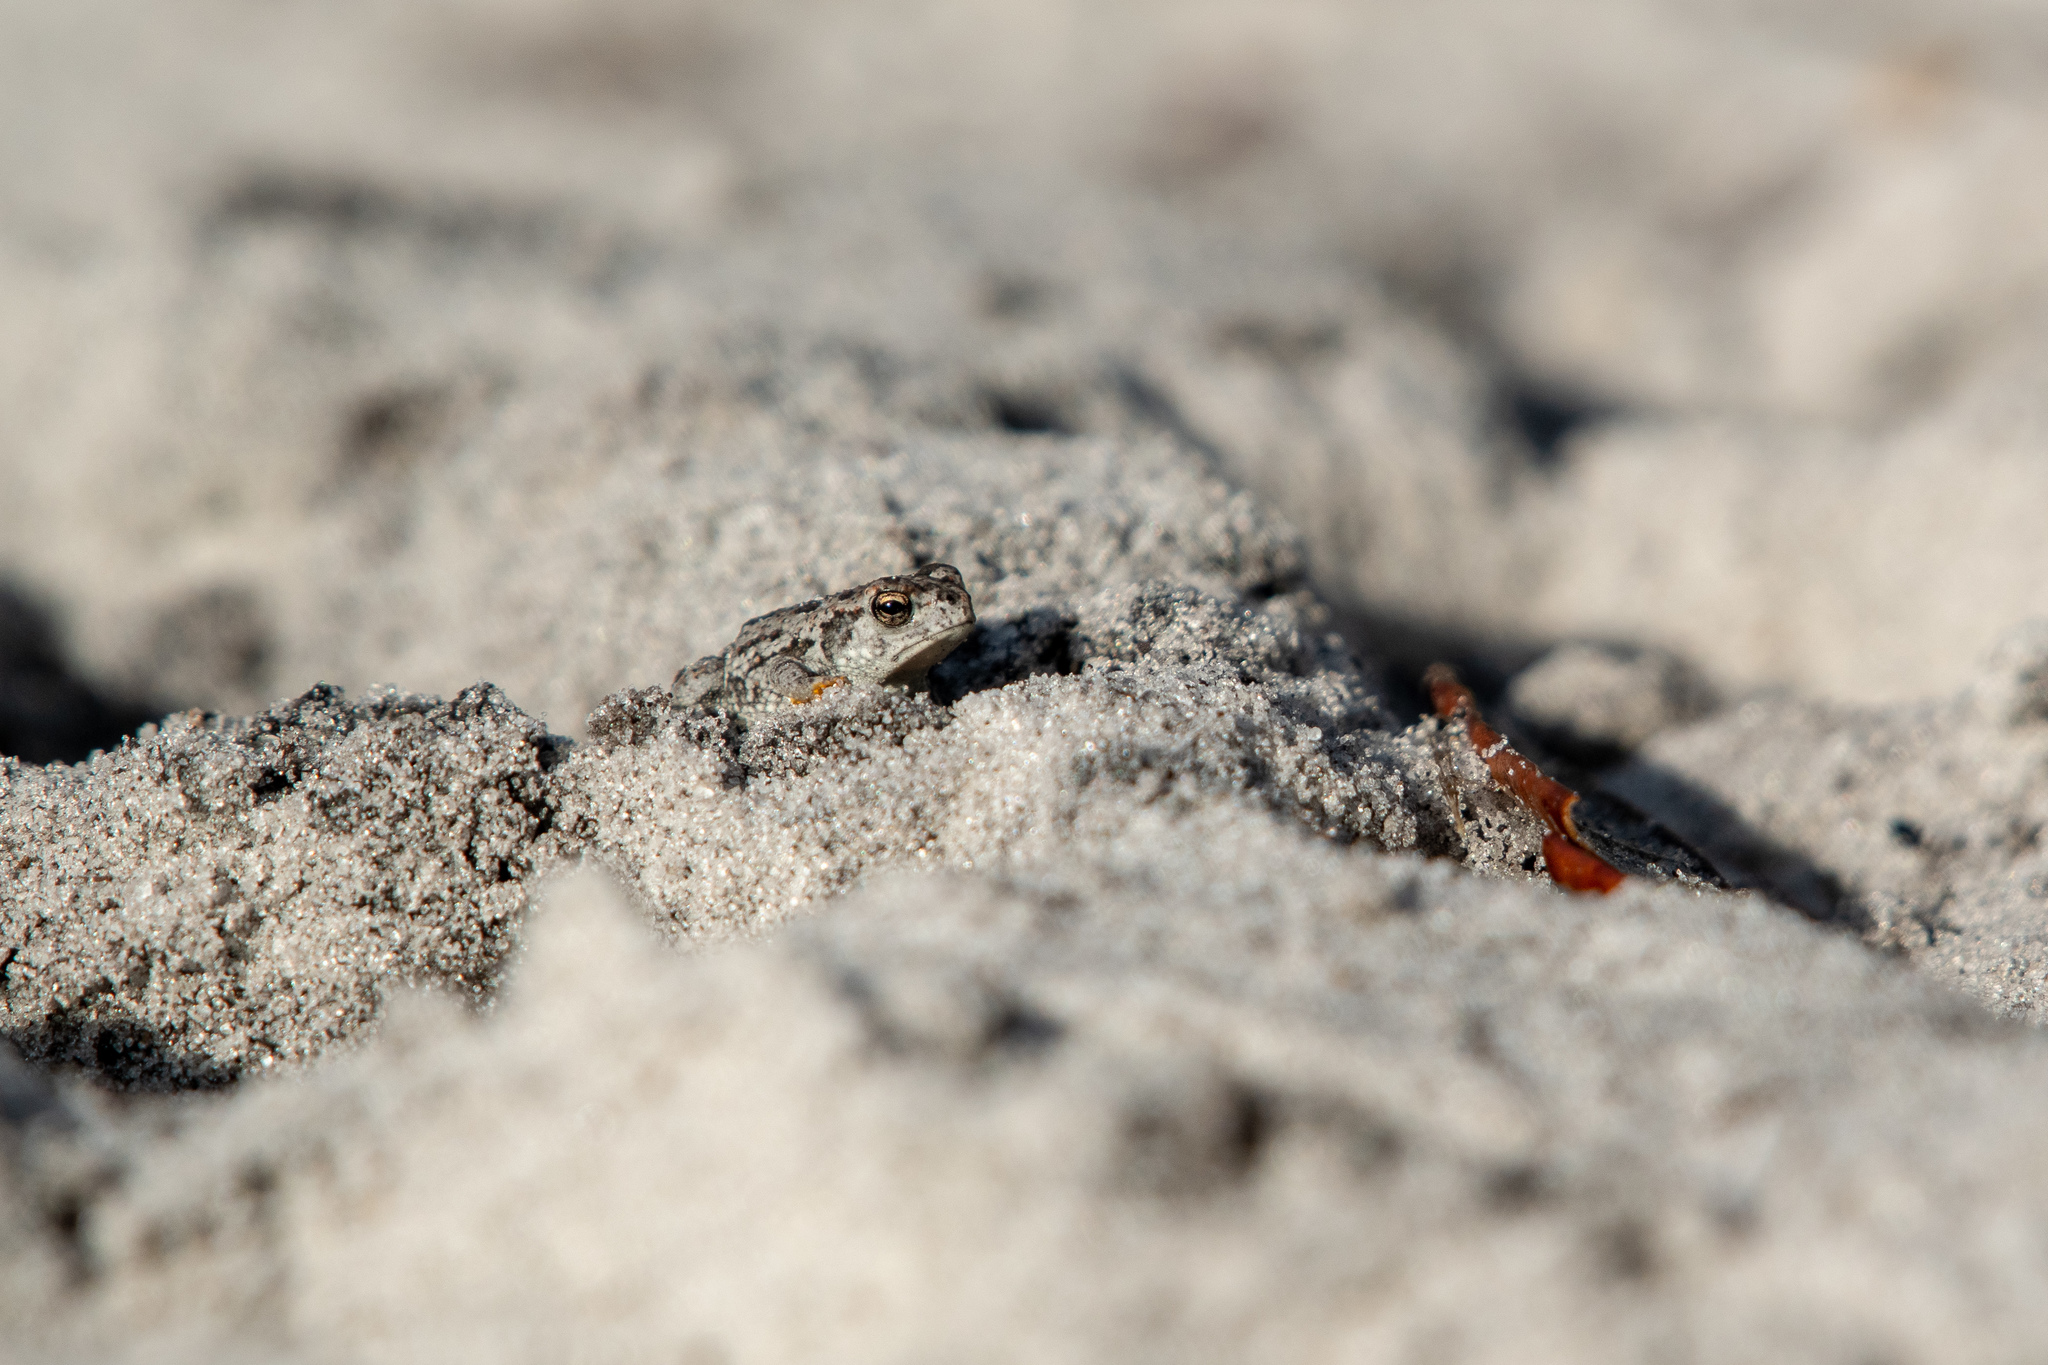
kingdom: Animalia
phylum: Chordata
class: Amphibia
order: Anura
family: Bufonidae
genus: Anaxyrus
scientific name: Anaxyrus quercicus
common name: Oak toad
